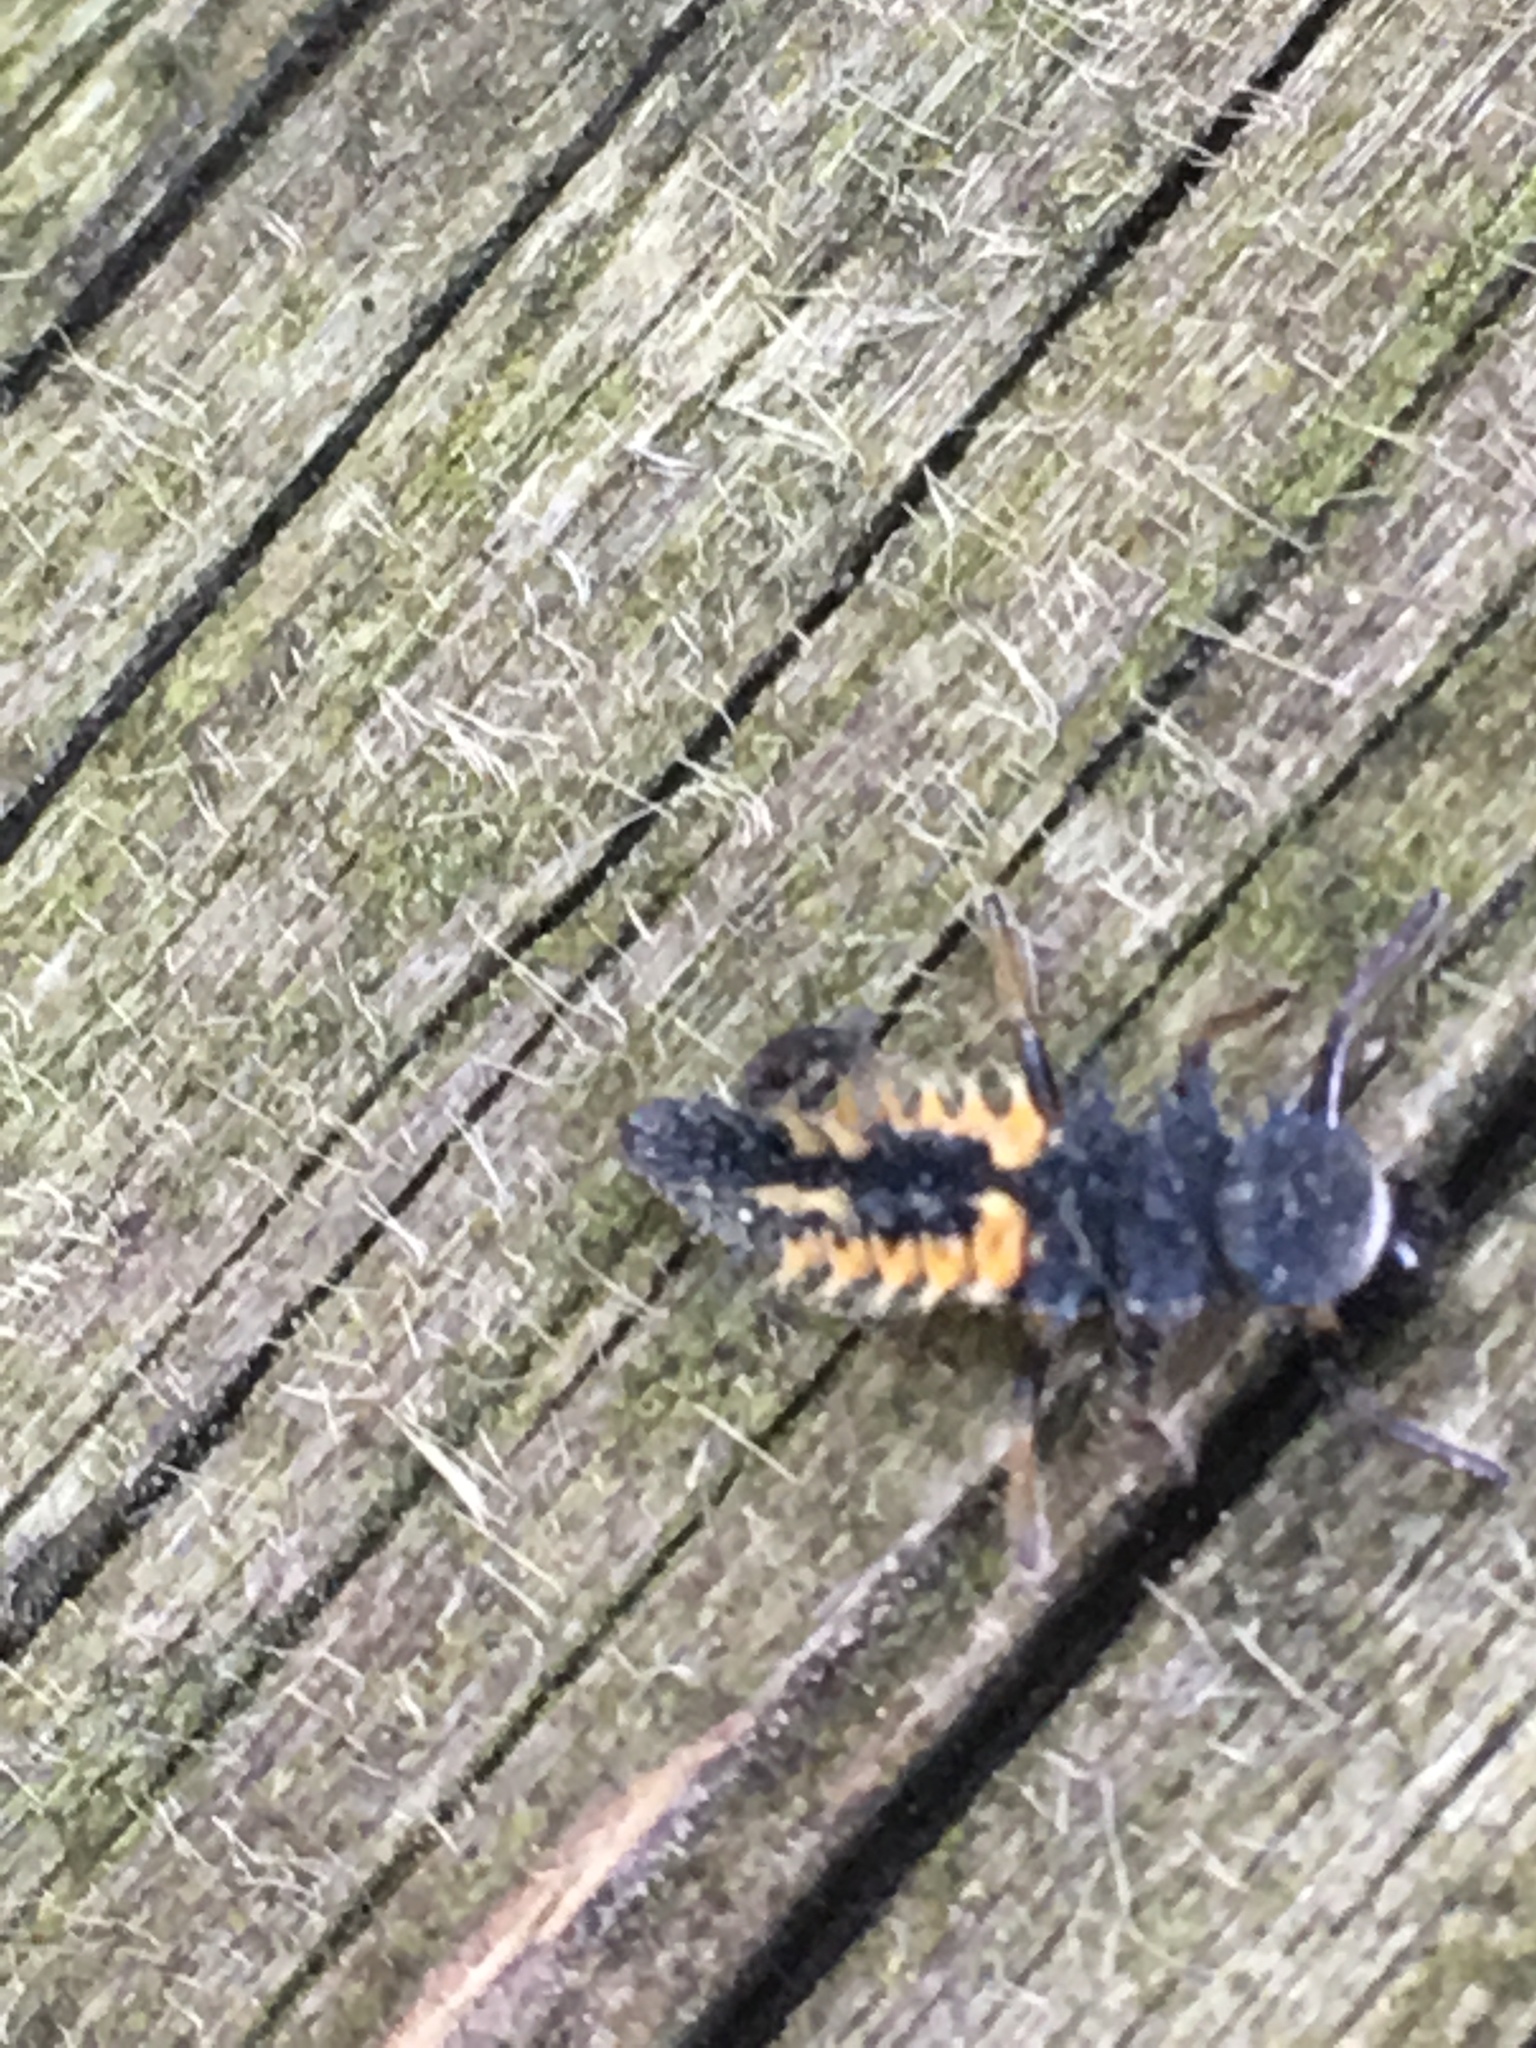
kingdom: Animalia
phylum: Arthropoda
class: Insecta
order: Coleoptera
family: Coccinellidae
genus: Harmonia
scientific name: Harmonia axyridis
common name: Harlequin ladybird
